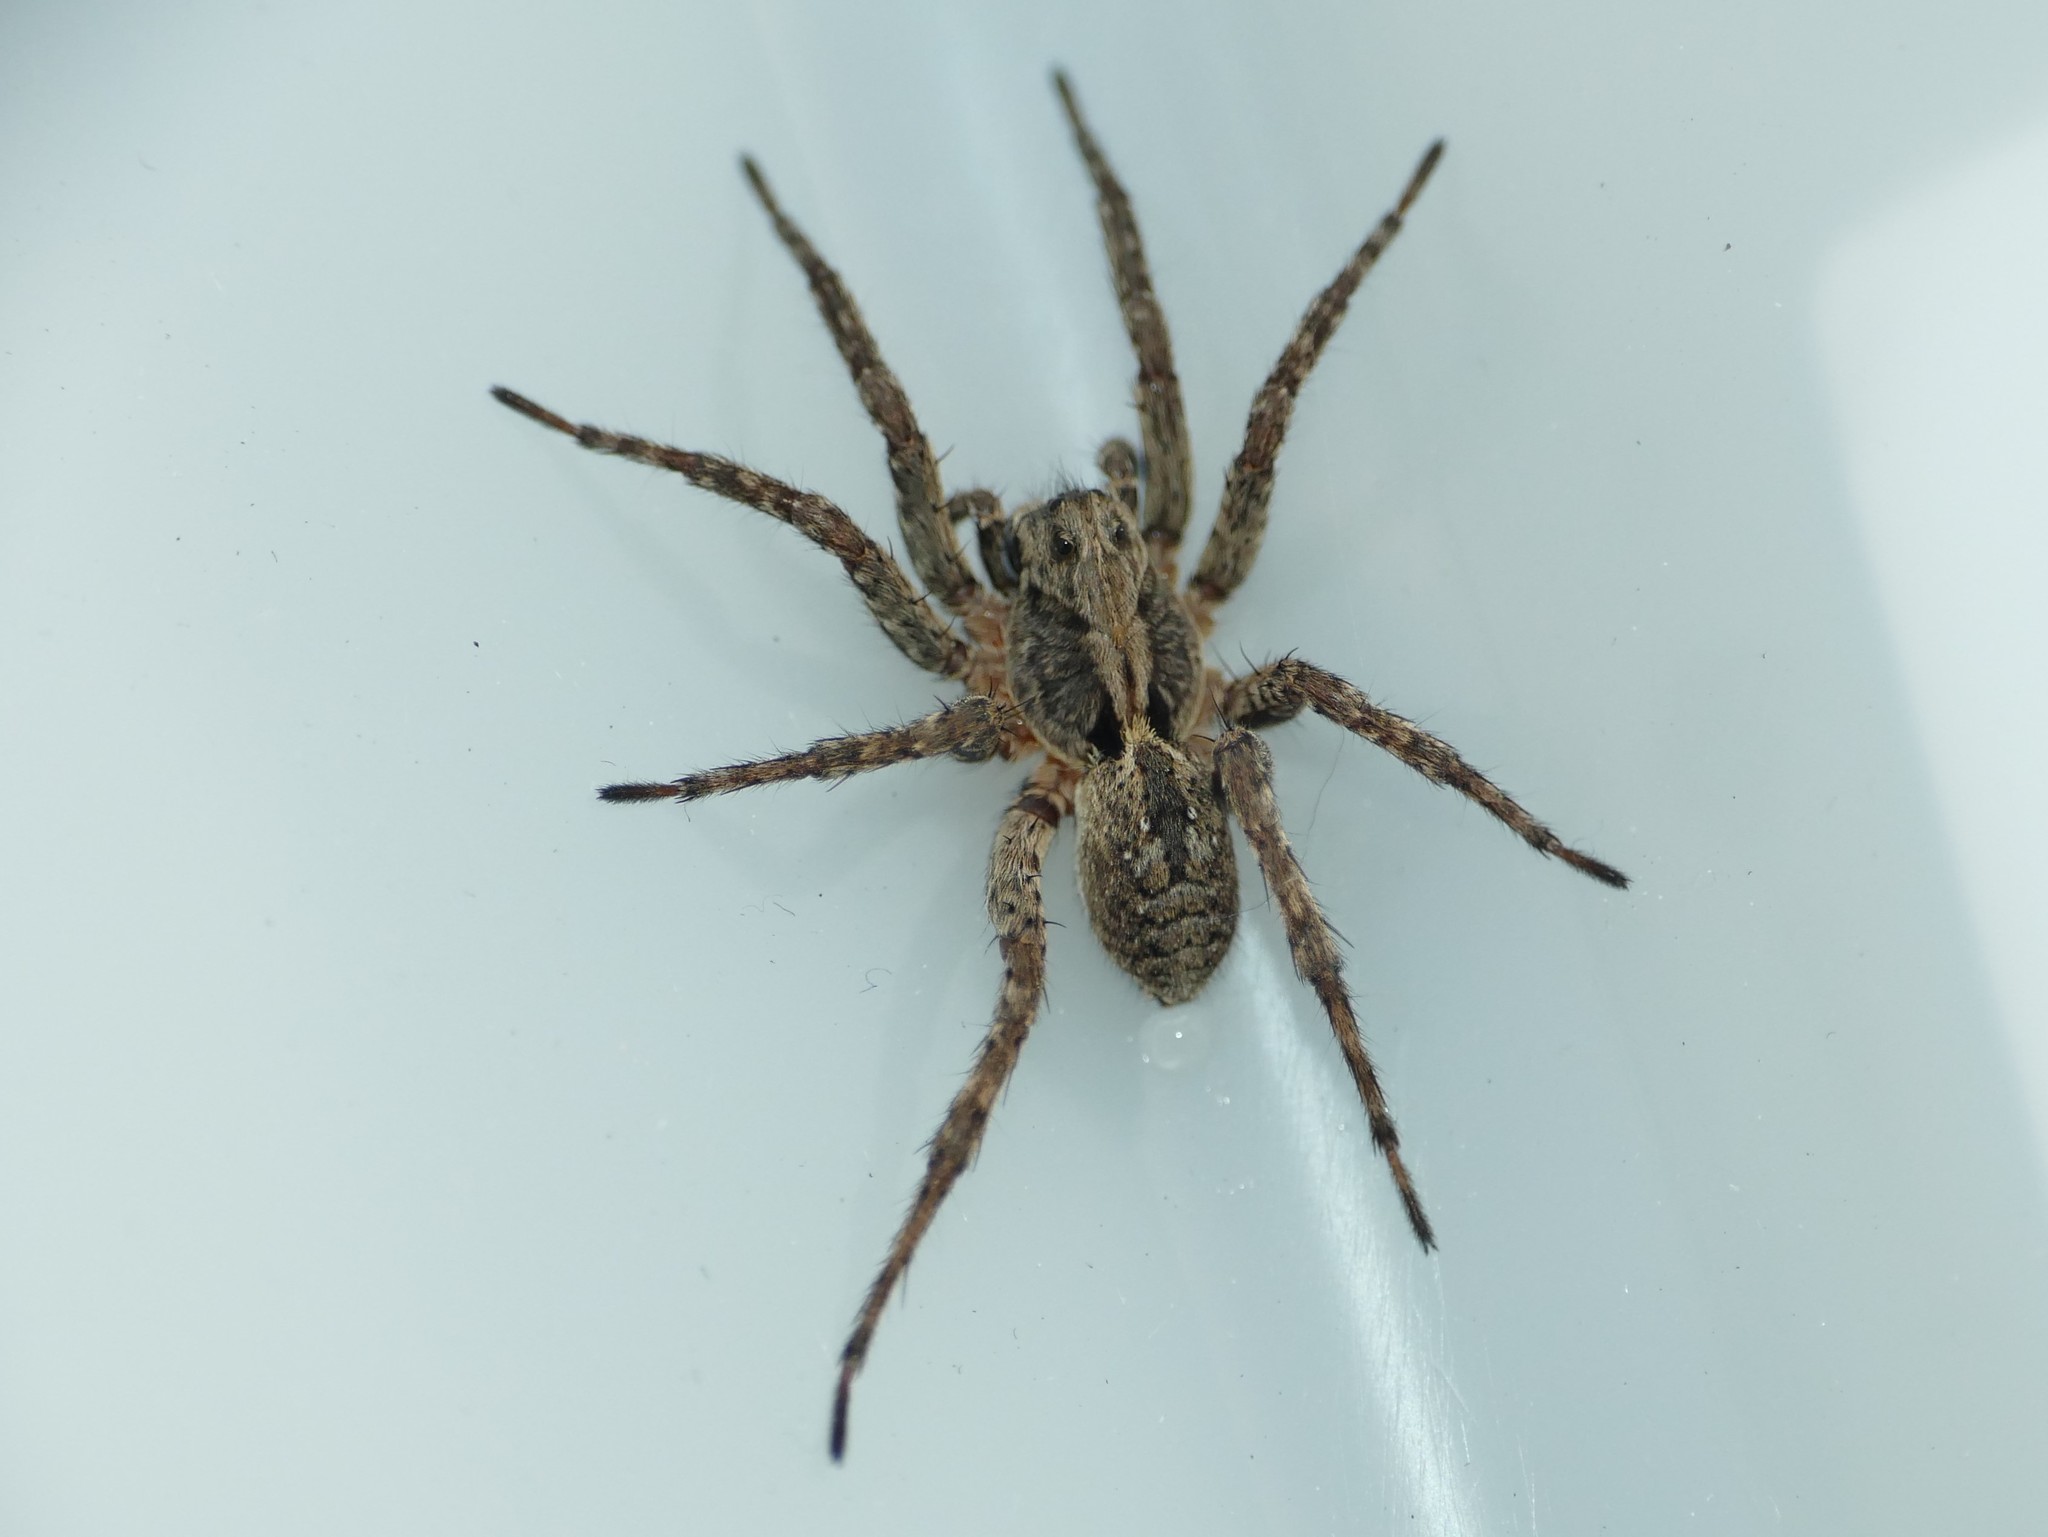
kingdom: Animalia
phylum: Arthropoda
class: Arachnida
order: Araneae
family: Lycosidae
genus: Alopecosa
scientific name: Alopecosa albofasciata
